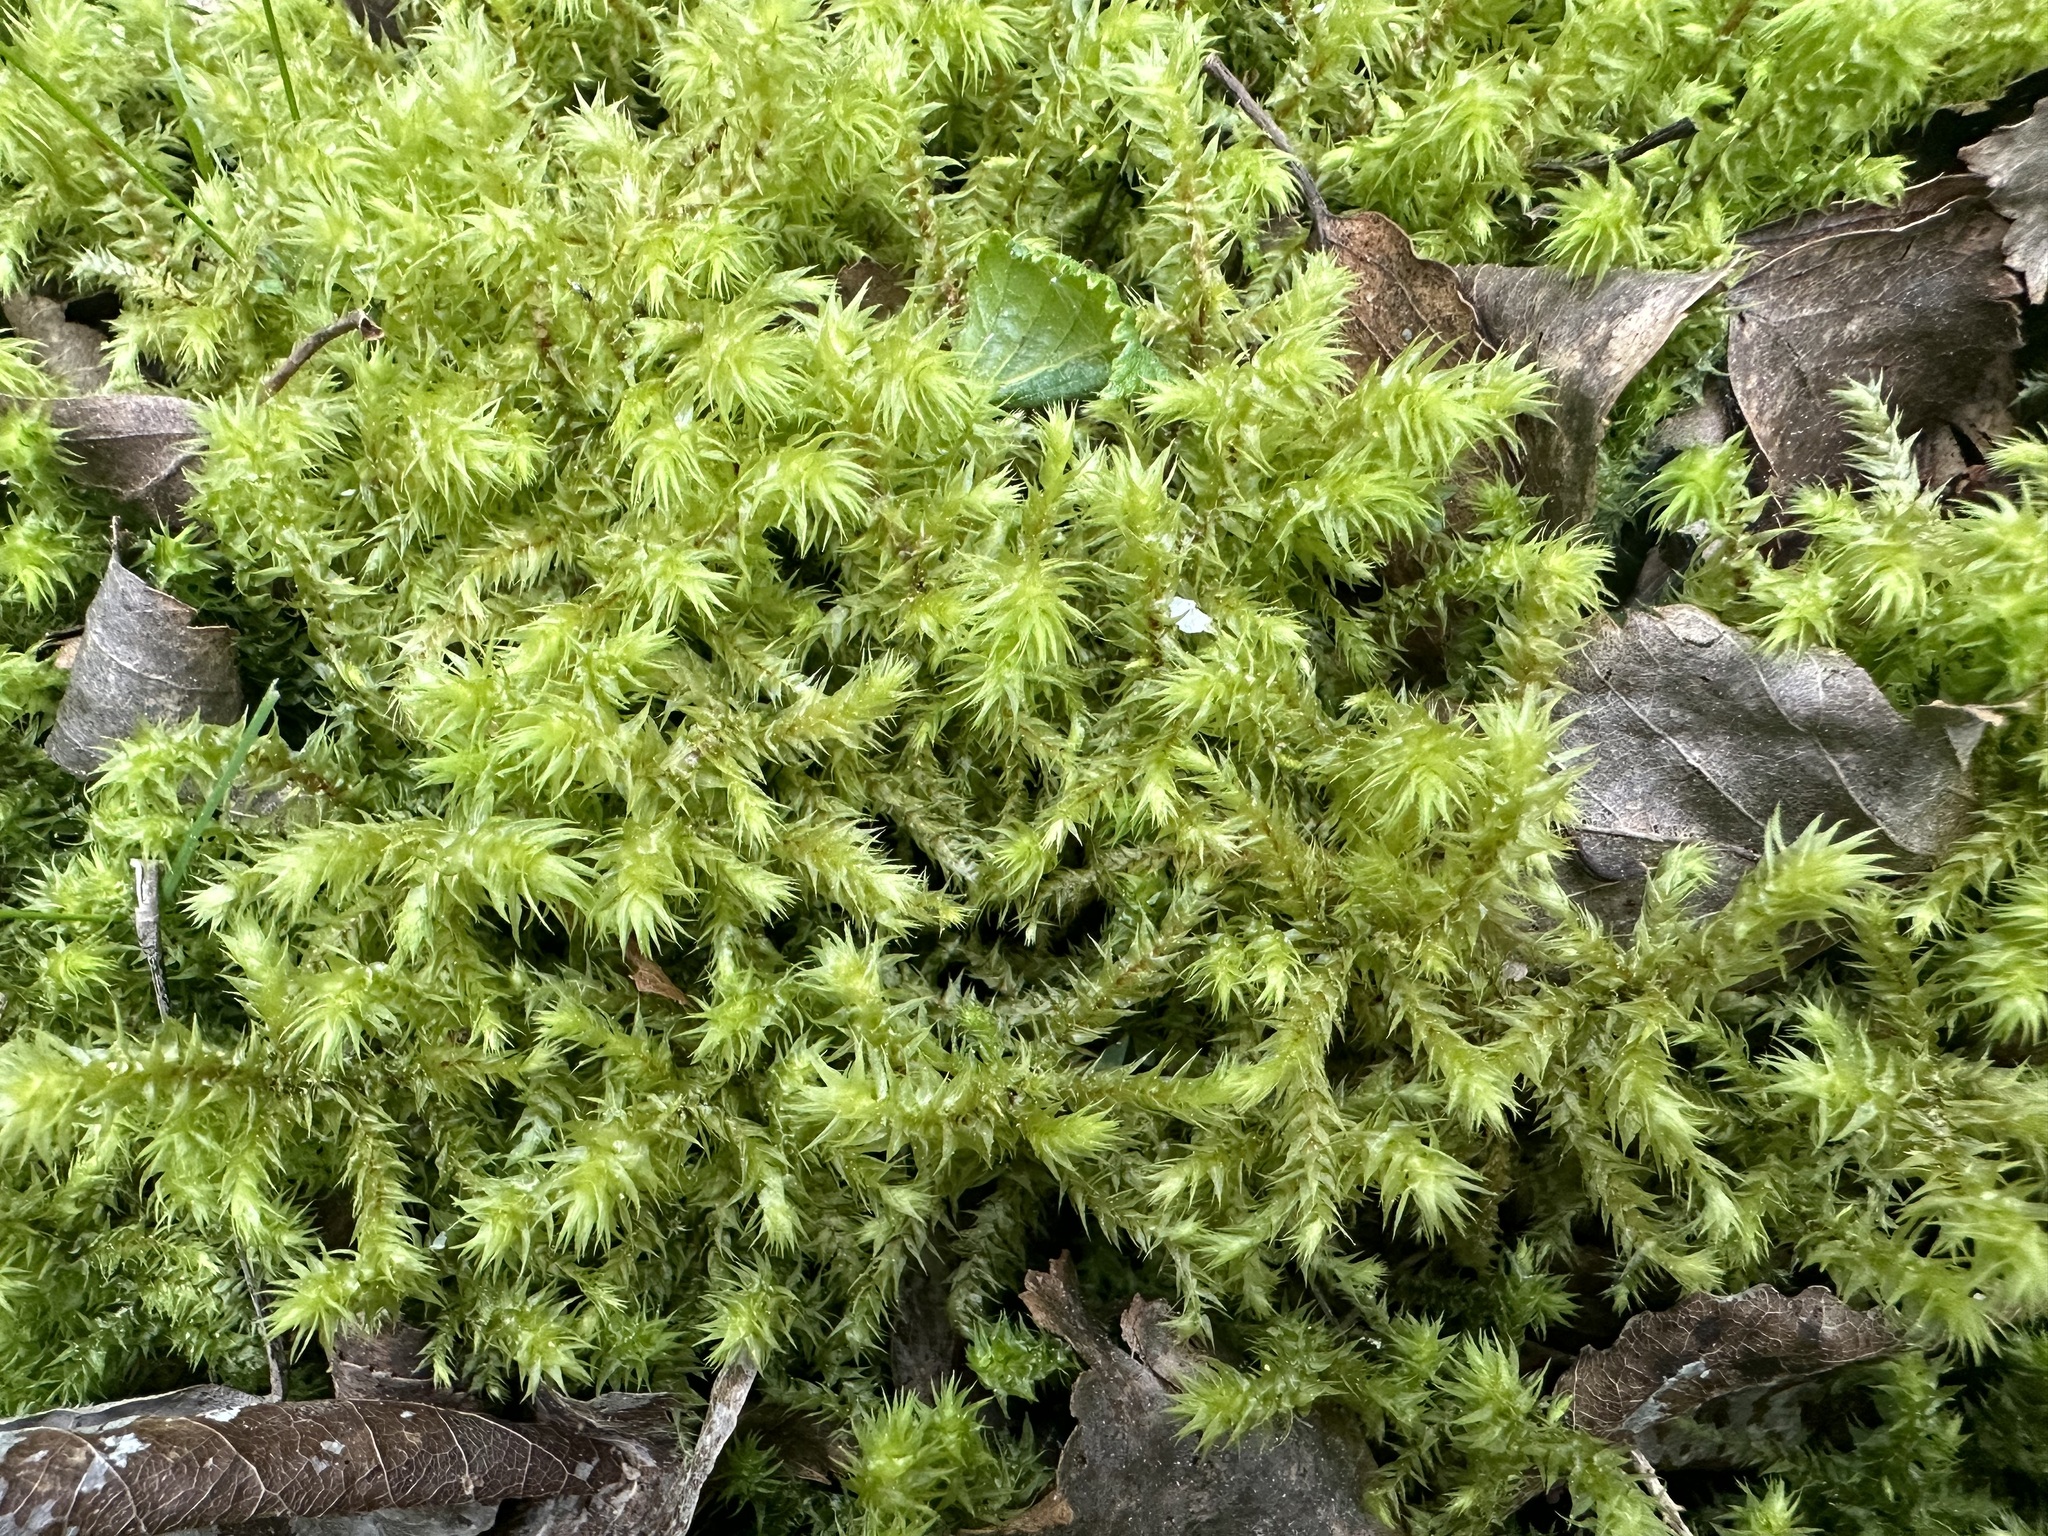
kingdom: Plantae
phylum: Bryophyta
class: Bryopsida
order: Hypnales
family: Hylocomiaceae
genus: Hylocomiadelphus
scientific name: Hylocomiadelphus triquetrus
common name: Rough goose neck moss
